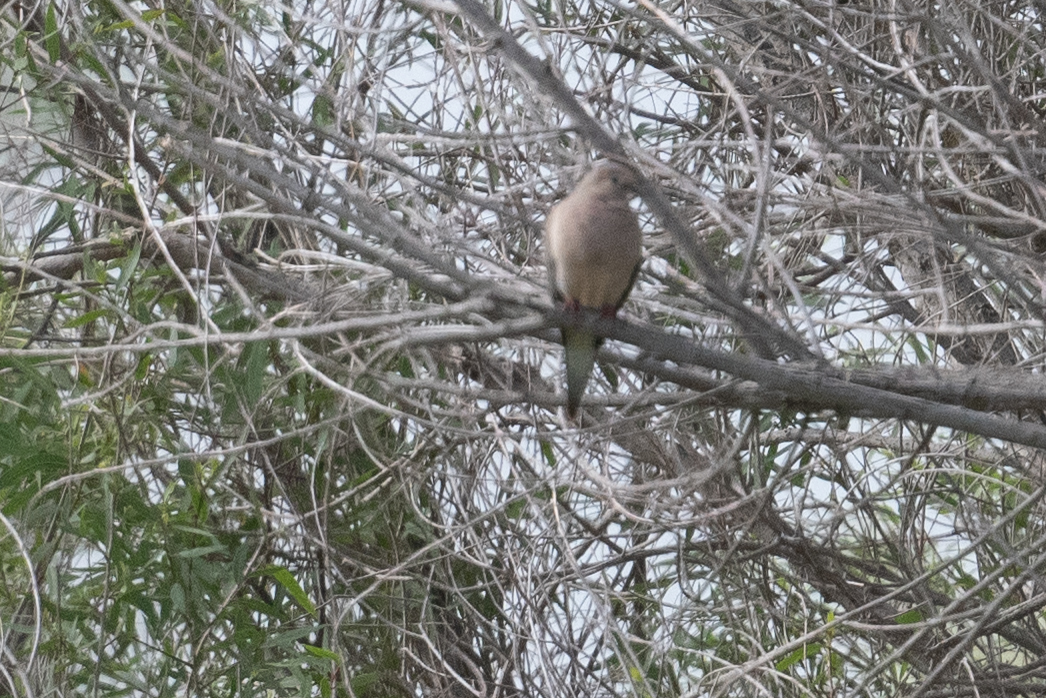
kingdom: Animalia
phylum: Chordata
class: Aves
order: Columbiformes
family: Columbidae
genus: Zenaida
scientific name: Zenaida macroura
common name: Mourning dove
